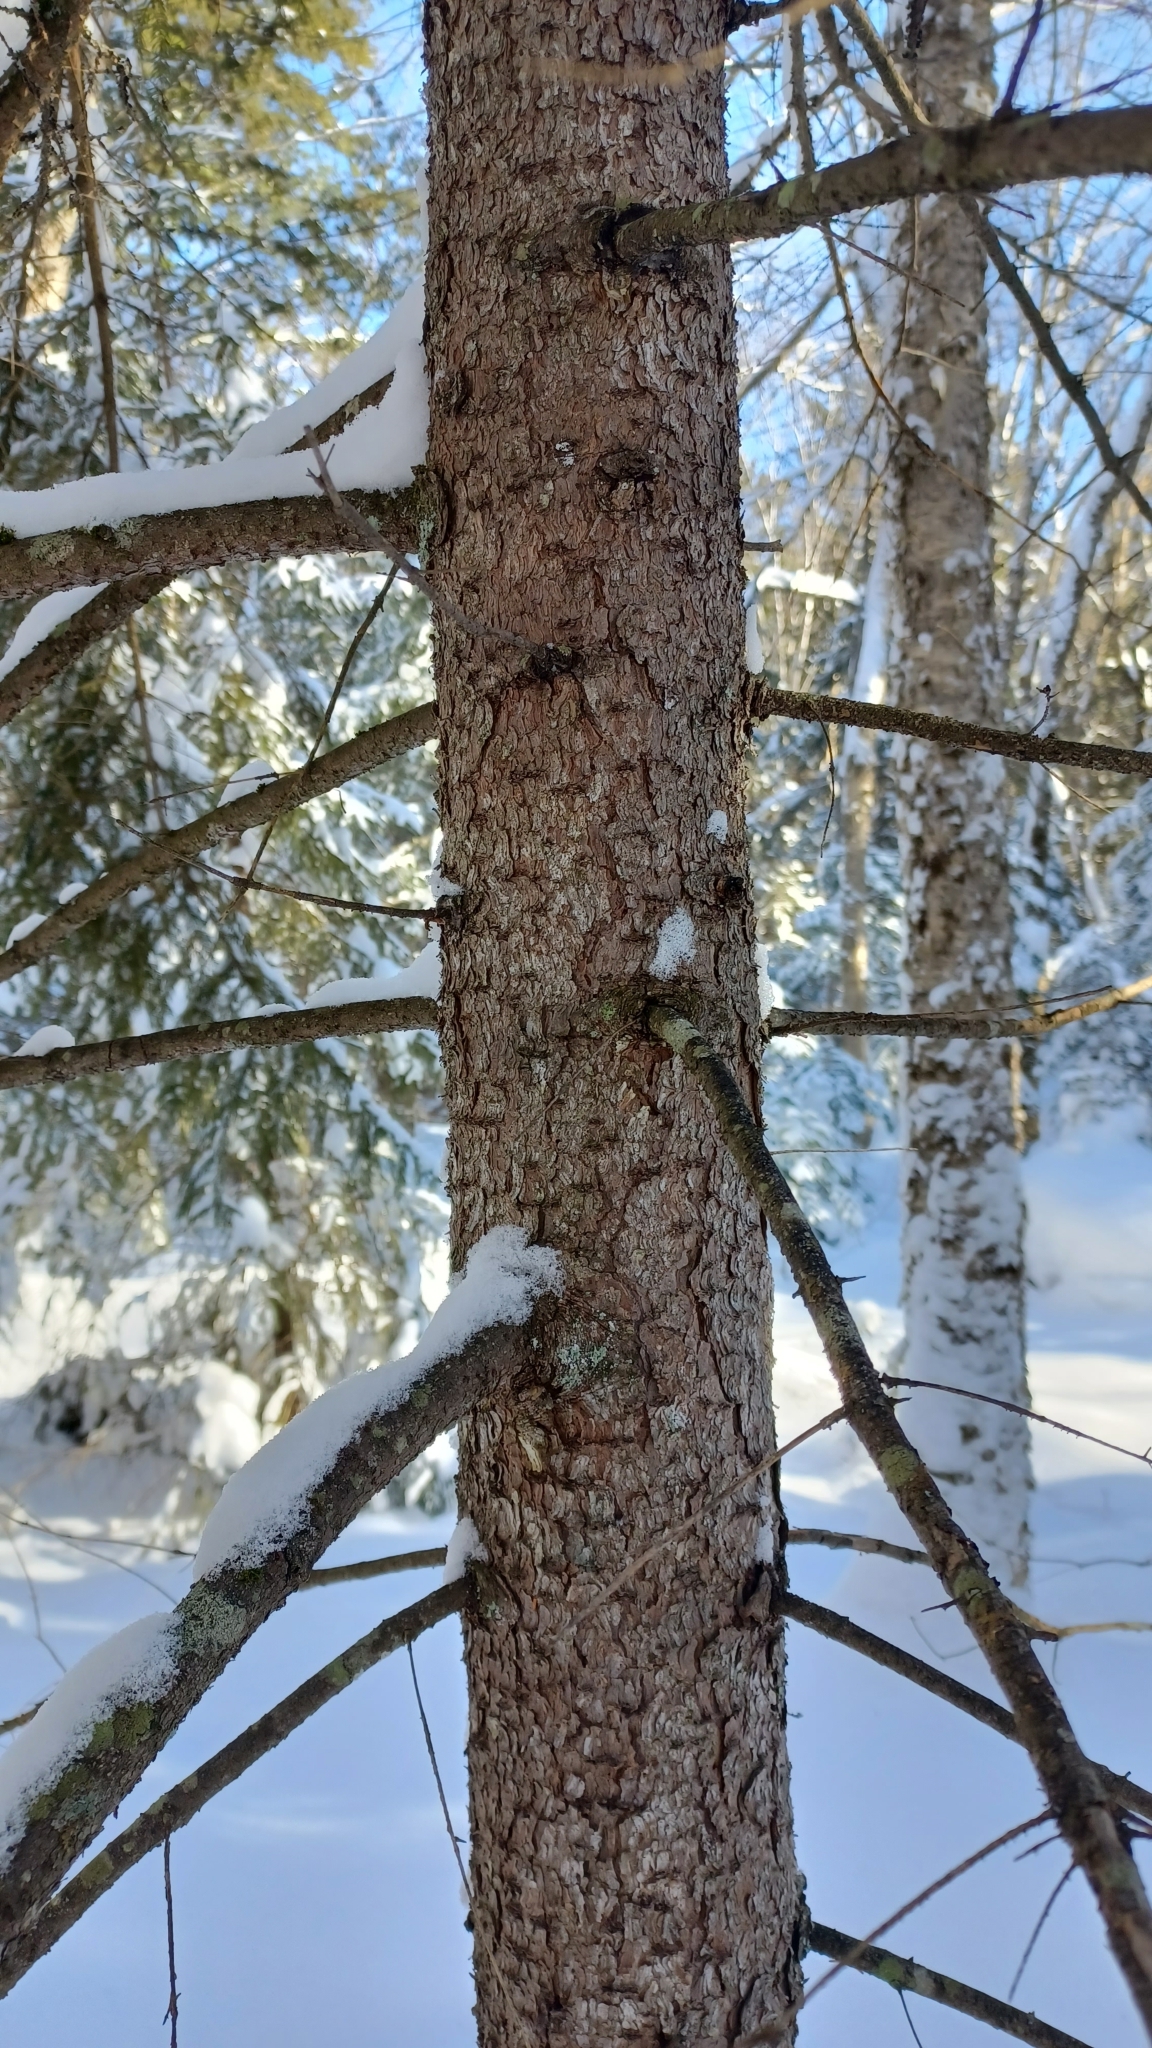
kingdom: Plantae
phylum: Tracheophyta
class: Pinopsida
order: Pinales
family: Pinaceae
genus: Picea
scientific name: Picea rubens
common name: Red spruce
